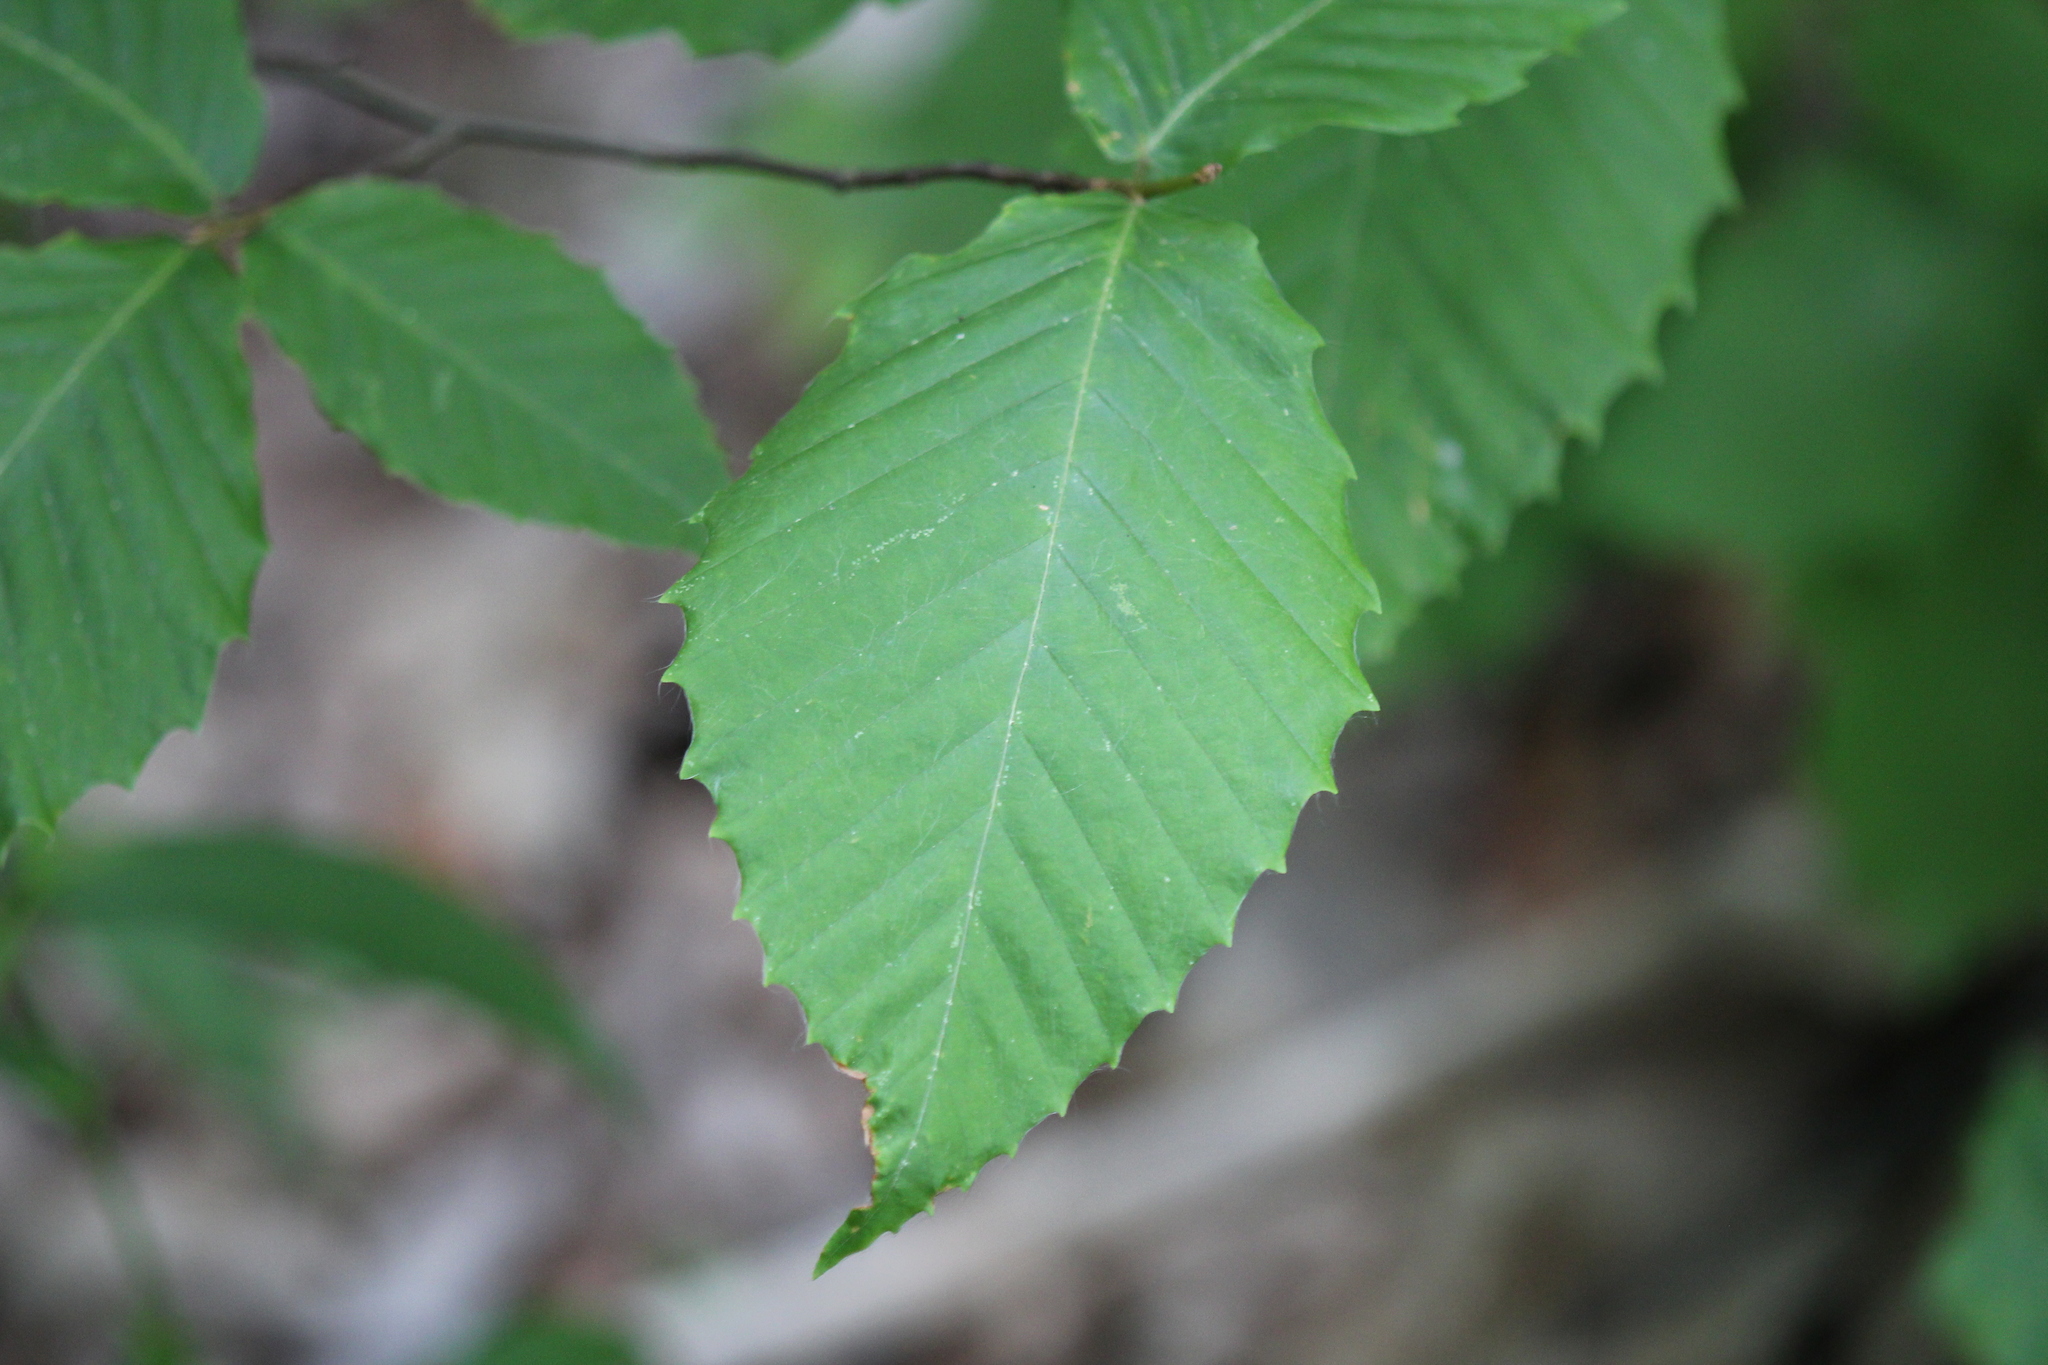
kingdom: Plantae
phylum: Tracheophyta
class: Magnoliopsida
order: Fagales
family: Fagaceae
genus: Fagus
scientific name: Fagus grandifolia
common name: American beech
